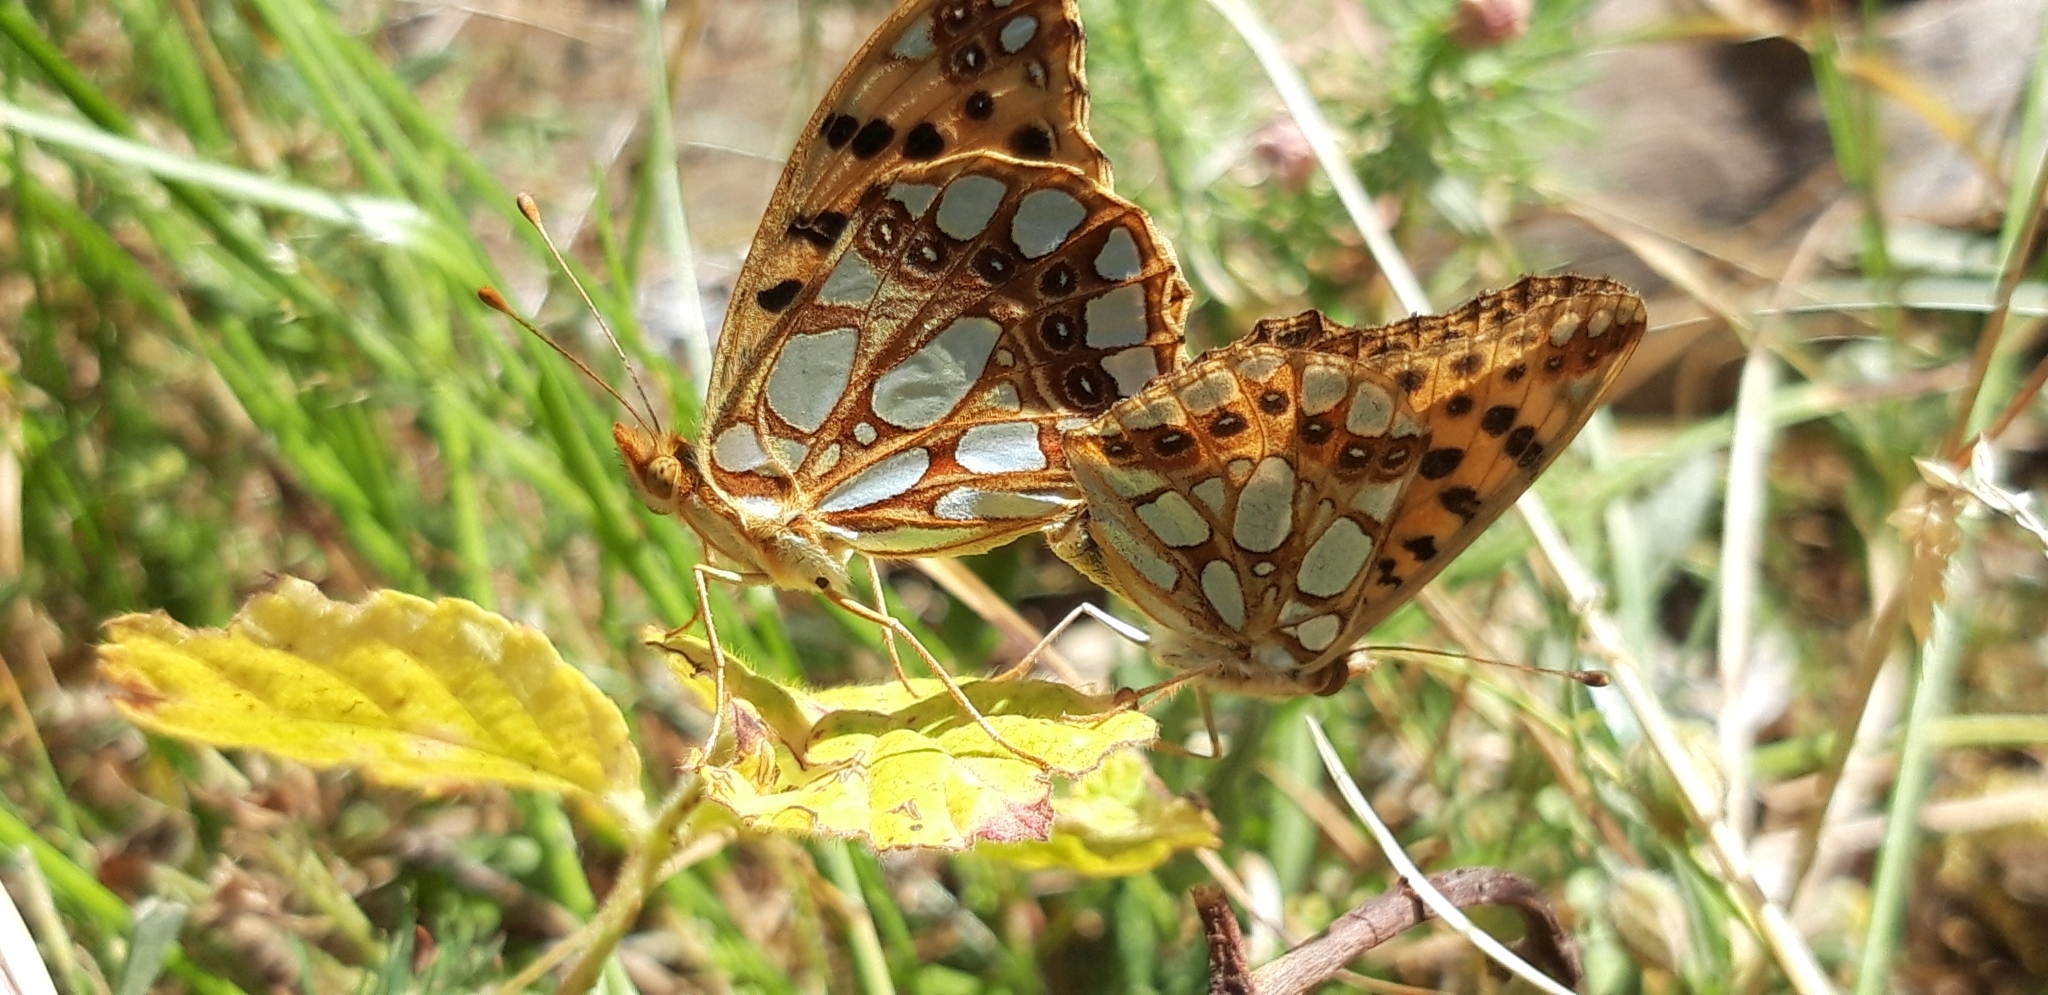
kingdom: Animalia
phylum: Arthropoda
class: Insecta
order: Lepidoptera
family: Nymphalidae
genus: Issoria
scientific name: Issoria lathonia
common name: Queen of spain fritillary
